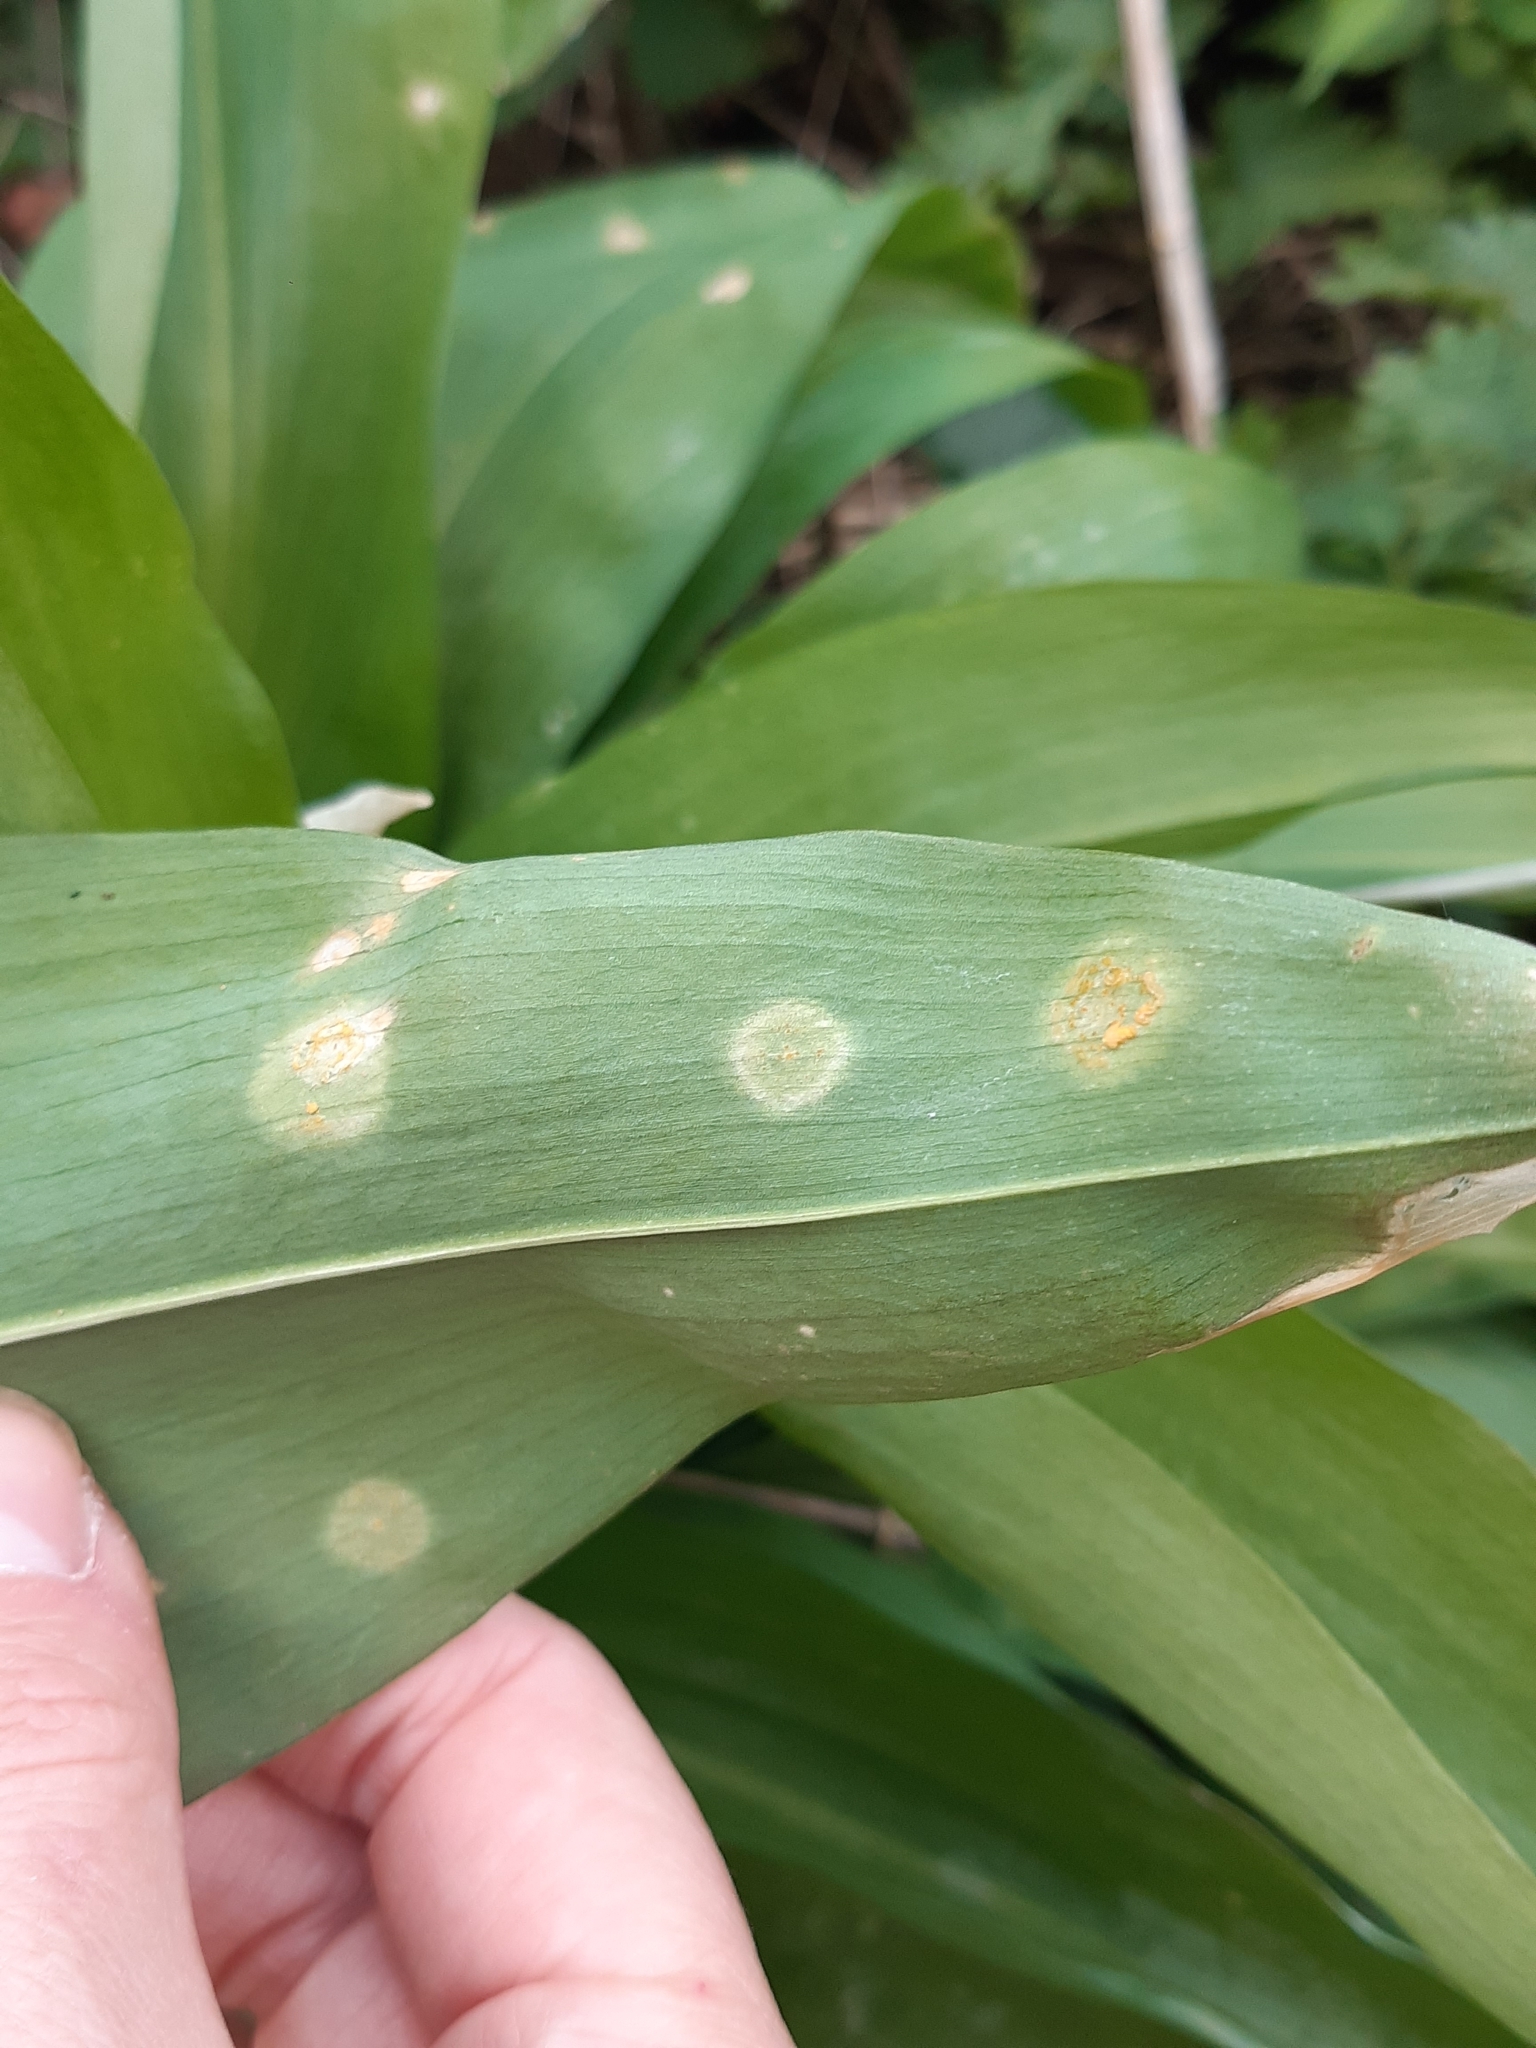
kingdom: Fungi
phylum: Basidiomycota
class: Pucciniomycetes
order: Pucciniales
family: Pucciniaceae
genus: Puccinia
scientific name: Puccinia sessilis
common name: Arum rust
